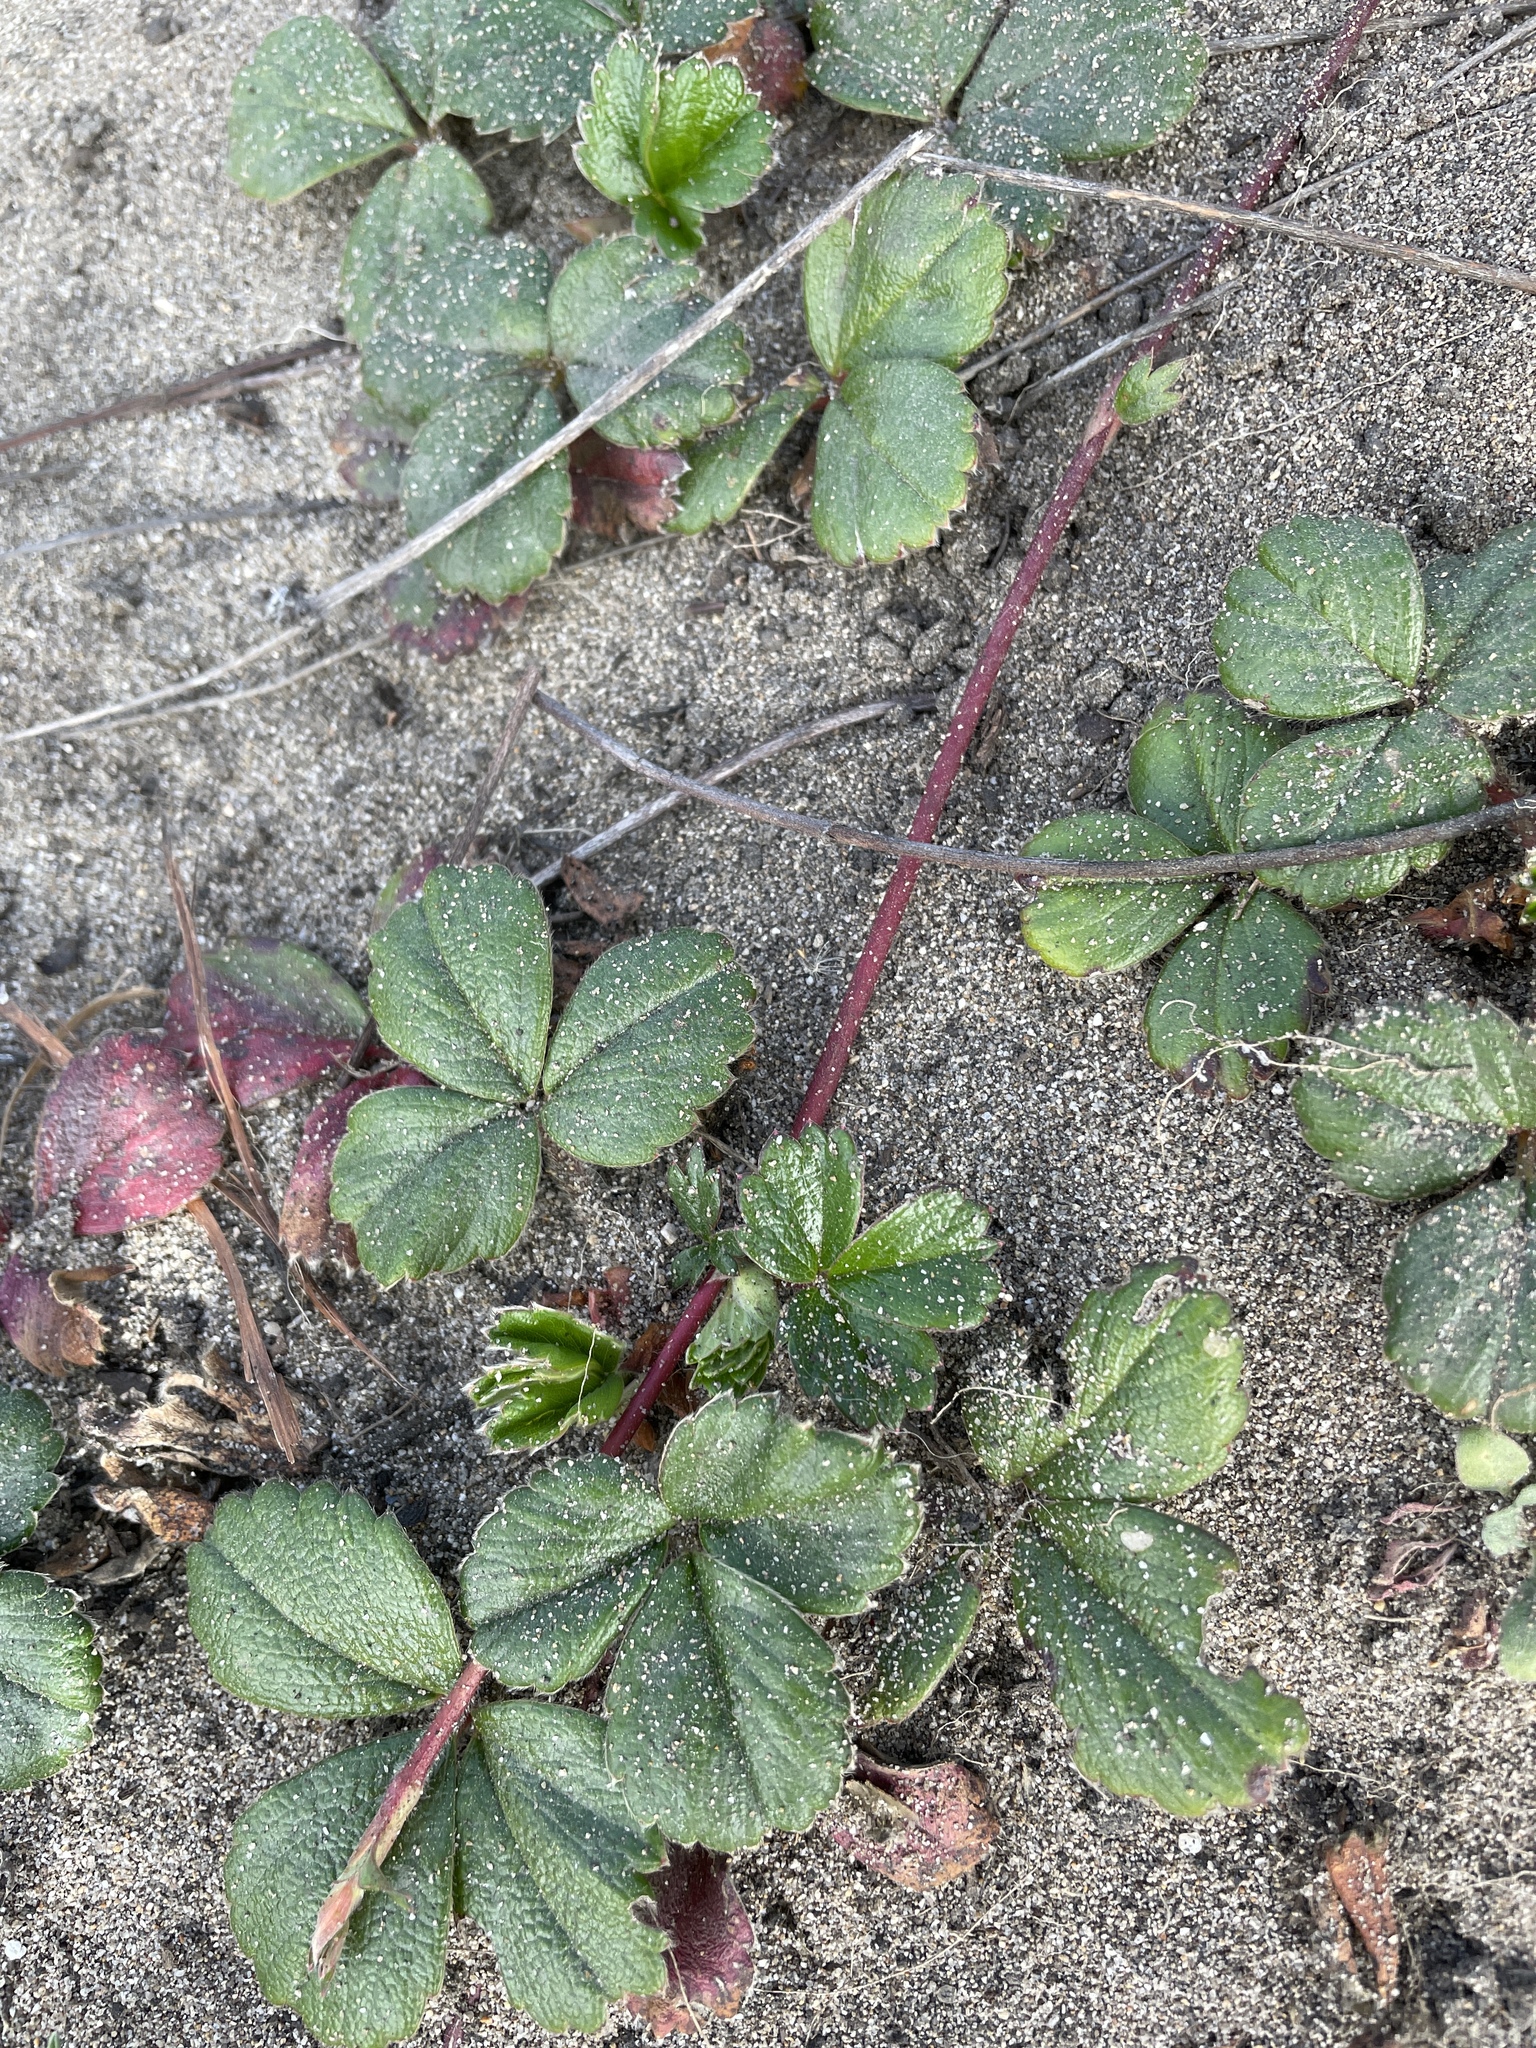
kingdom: Plantae
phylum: Tracheophyta
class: Magnoliopsida
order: Rosales
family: Rosaceae
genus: Fragaria
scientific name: Fragaria chiloensis
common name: Beach strawberry
